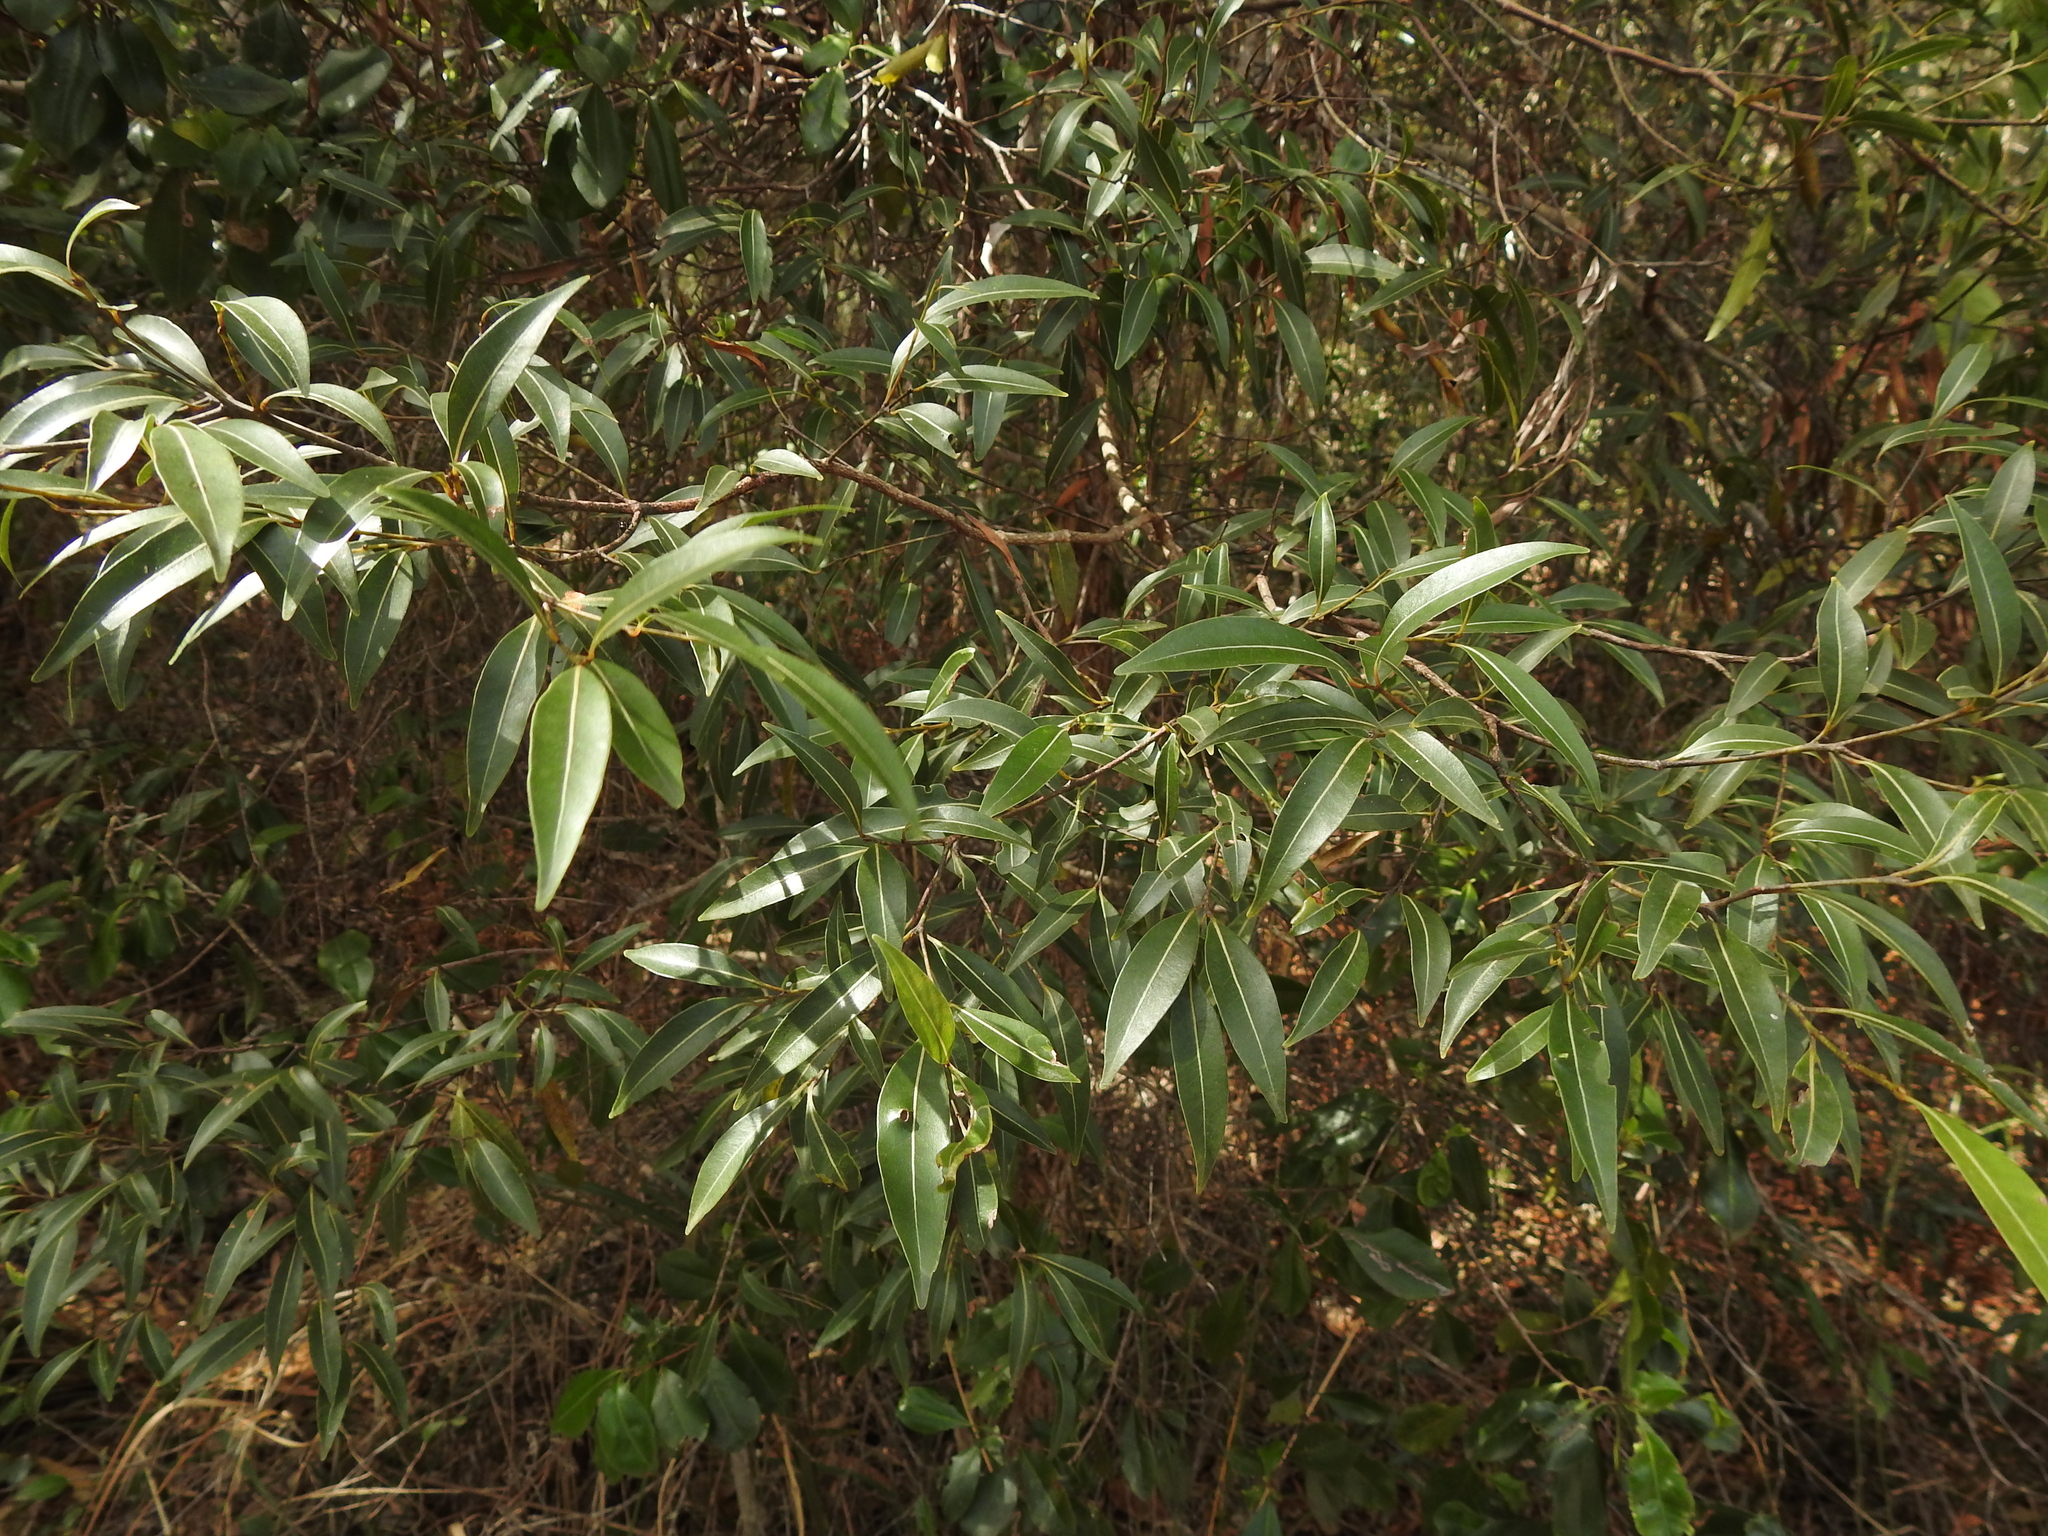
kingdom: Plantae
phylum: Tracheophyta
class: Magnoliopsida
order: Laurales
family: Lauraceae
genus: Endiandra
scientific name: Endiandra sieberi
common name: Corkwood
